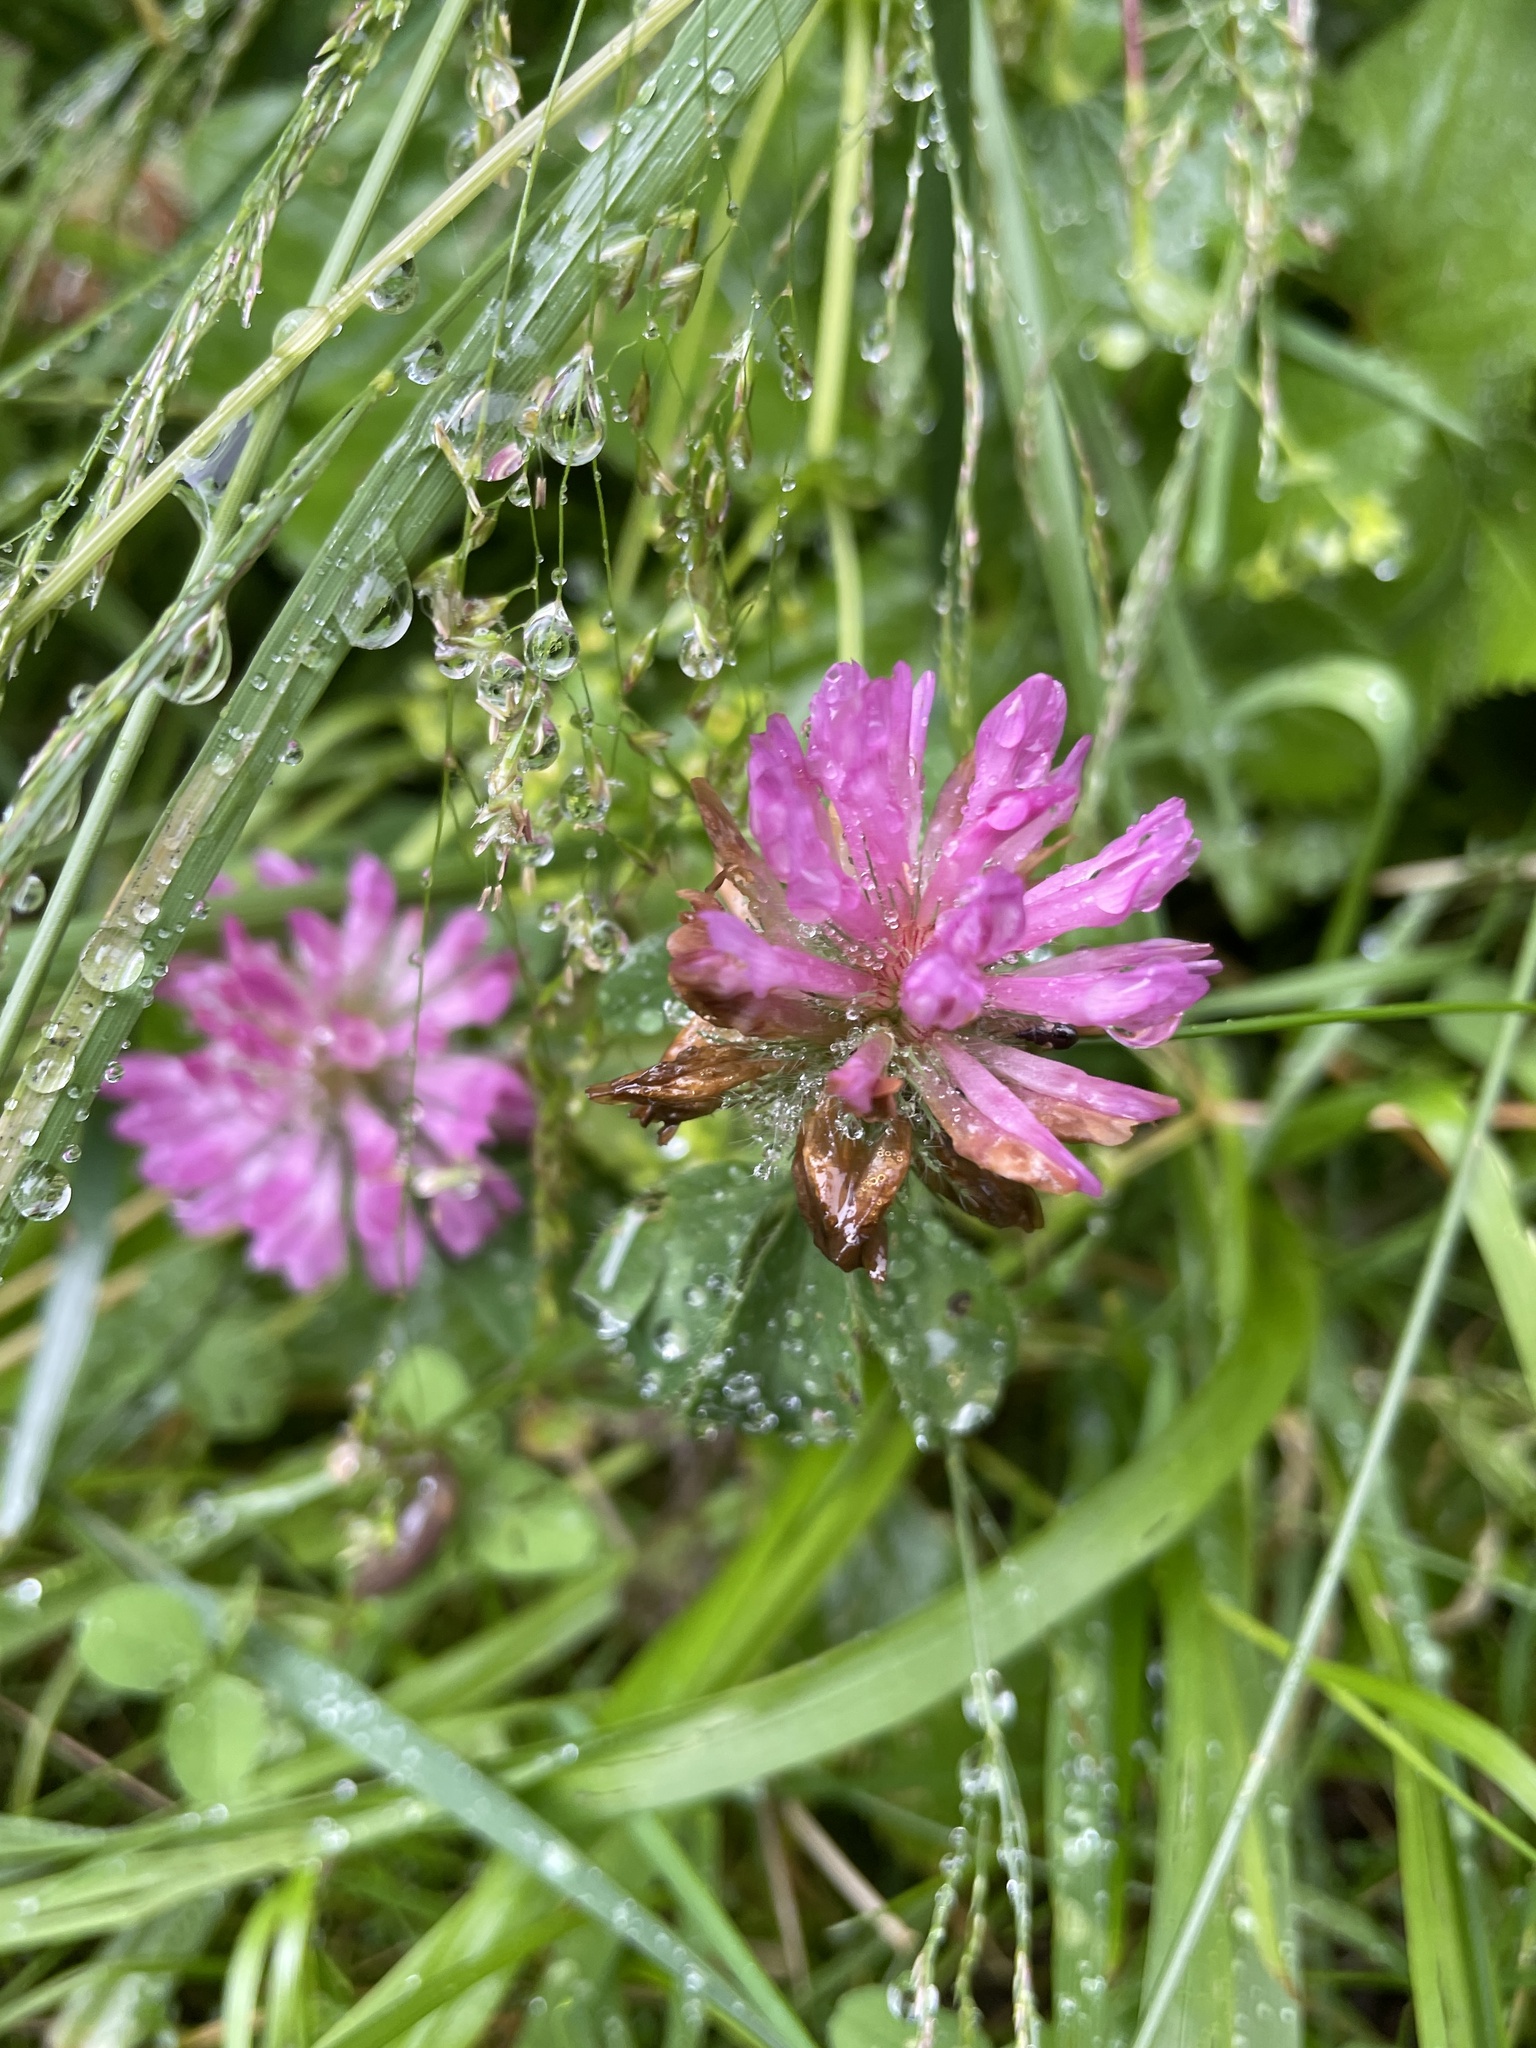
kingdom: Plantae
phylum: Tracheophyta
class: Magnoliopsida
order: Fabales
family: Fabaceae
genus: Trifolium
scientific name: Trifolium pratense
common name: Red clover
